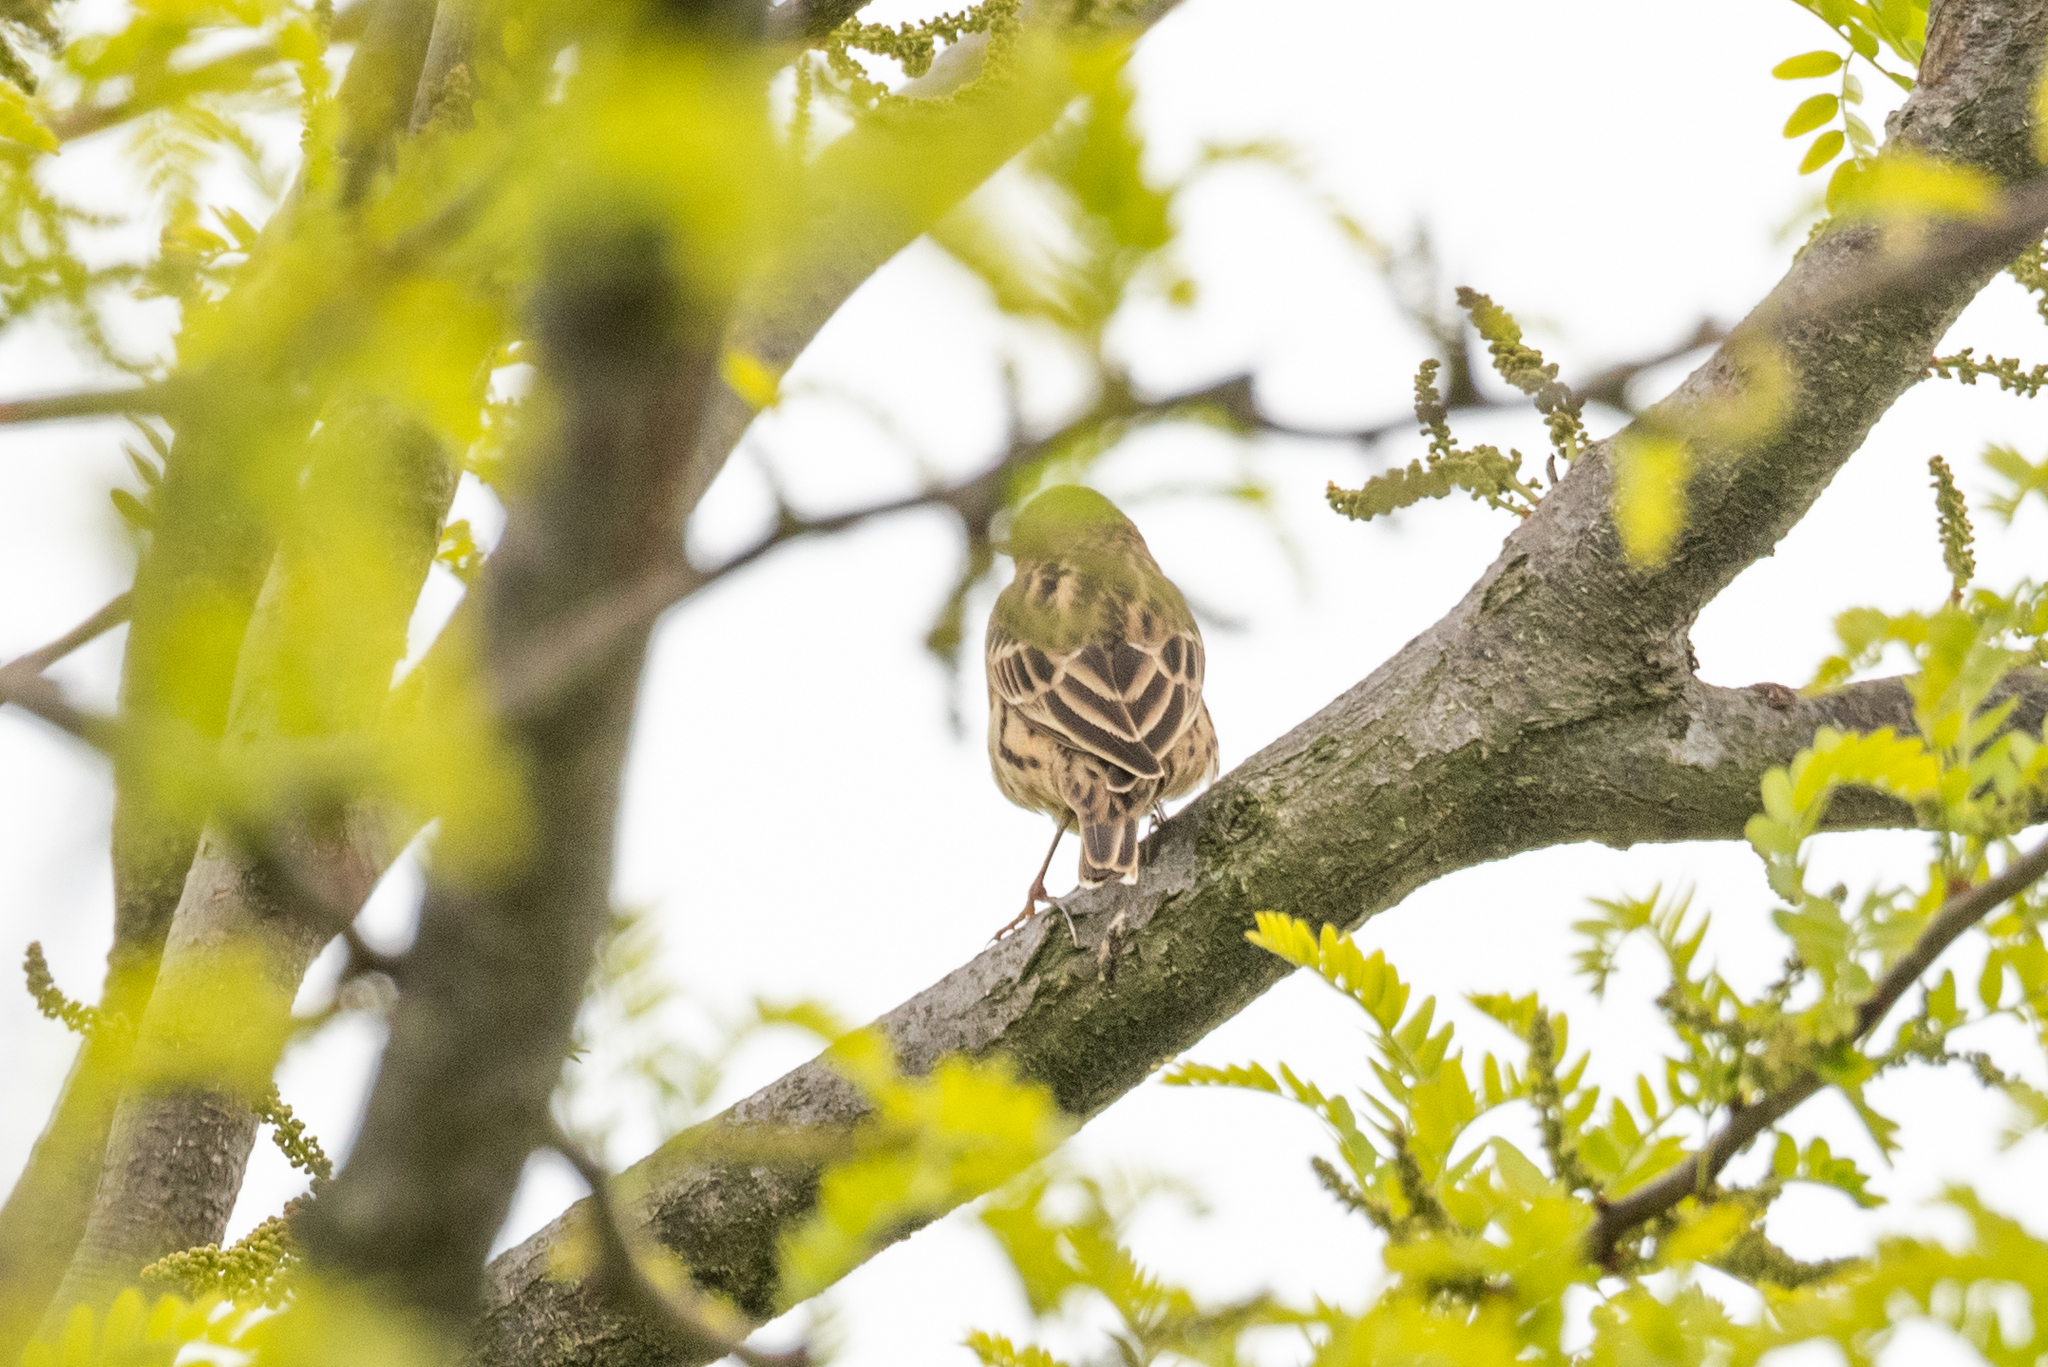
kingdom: Animalia
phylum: Chordata
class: Aves
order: Passeriformes
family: Motacillidae
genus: Anthus
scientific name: Anthus cervinus
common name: Red-throated pipit
